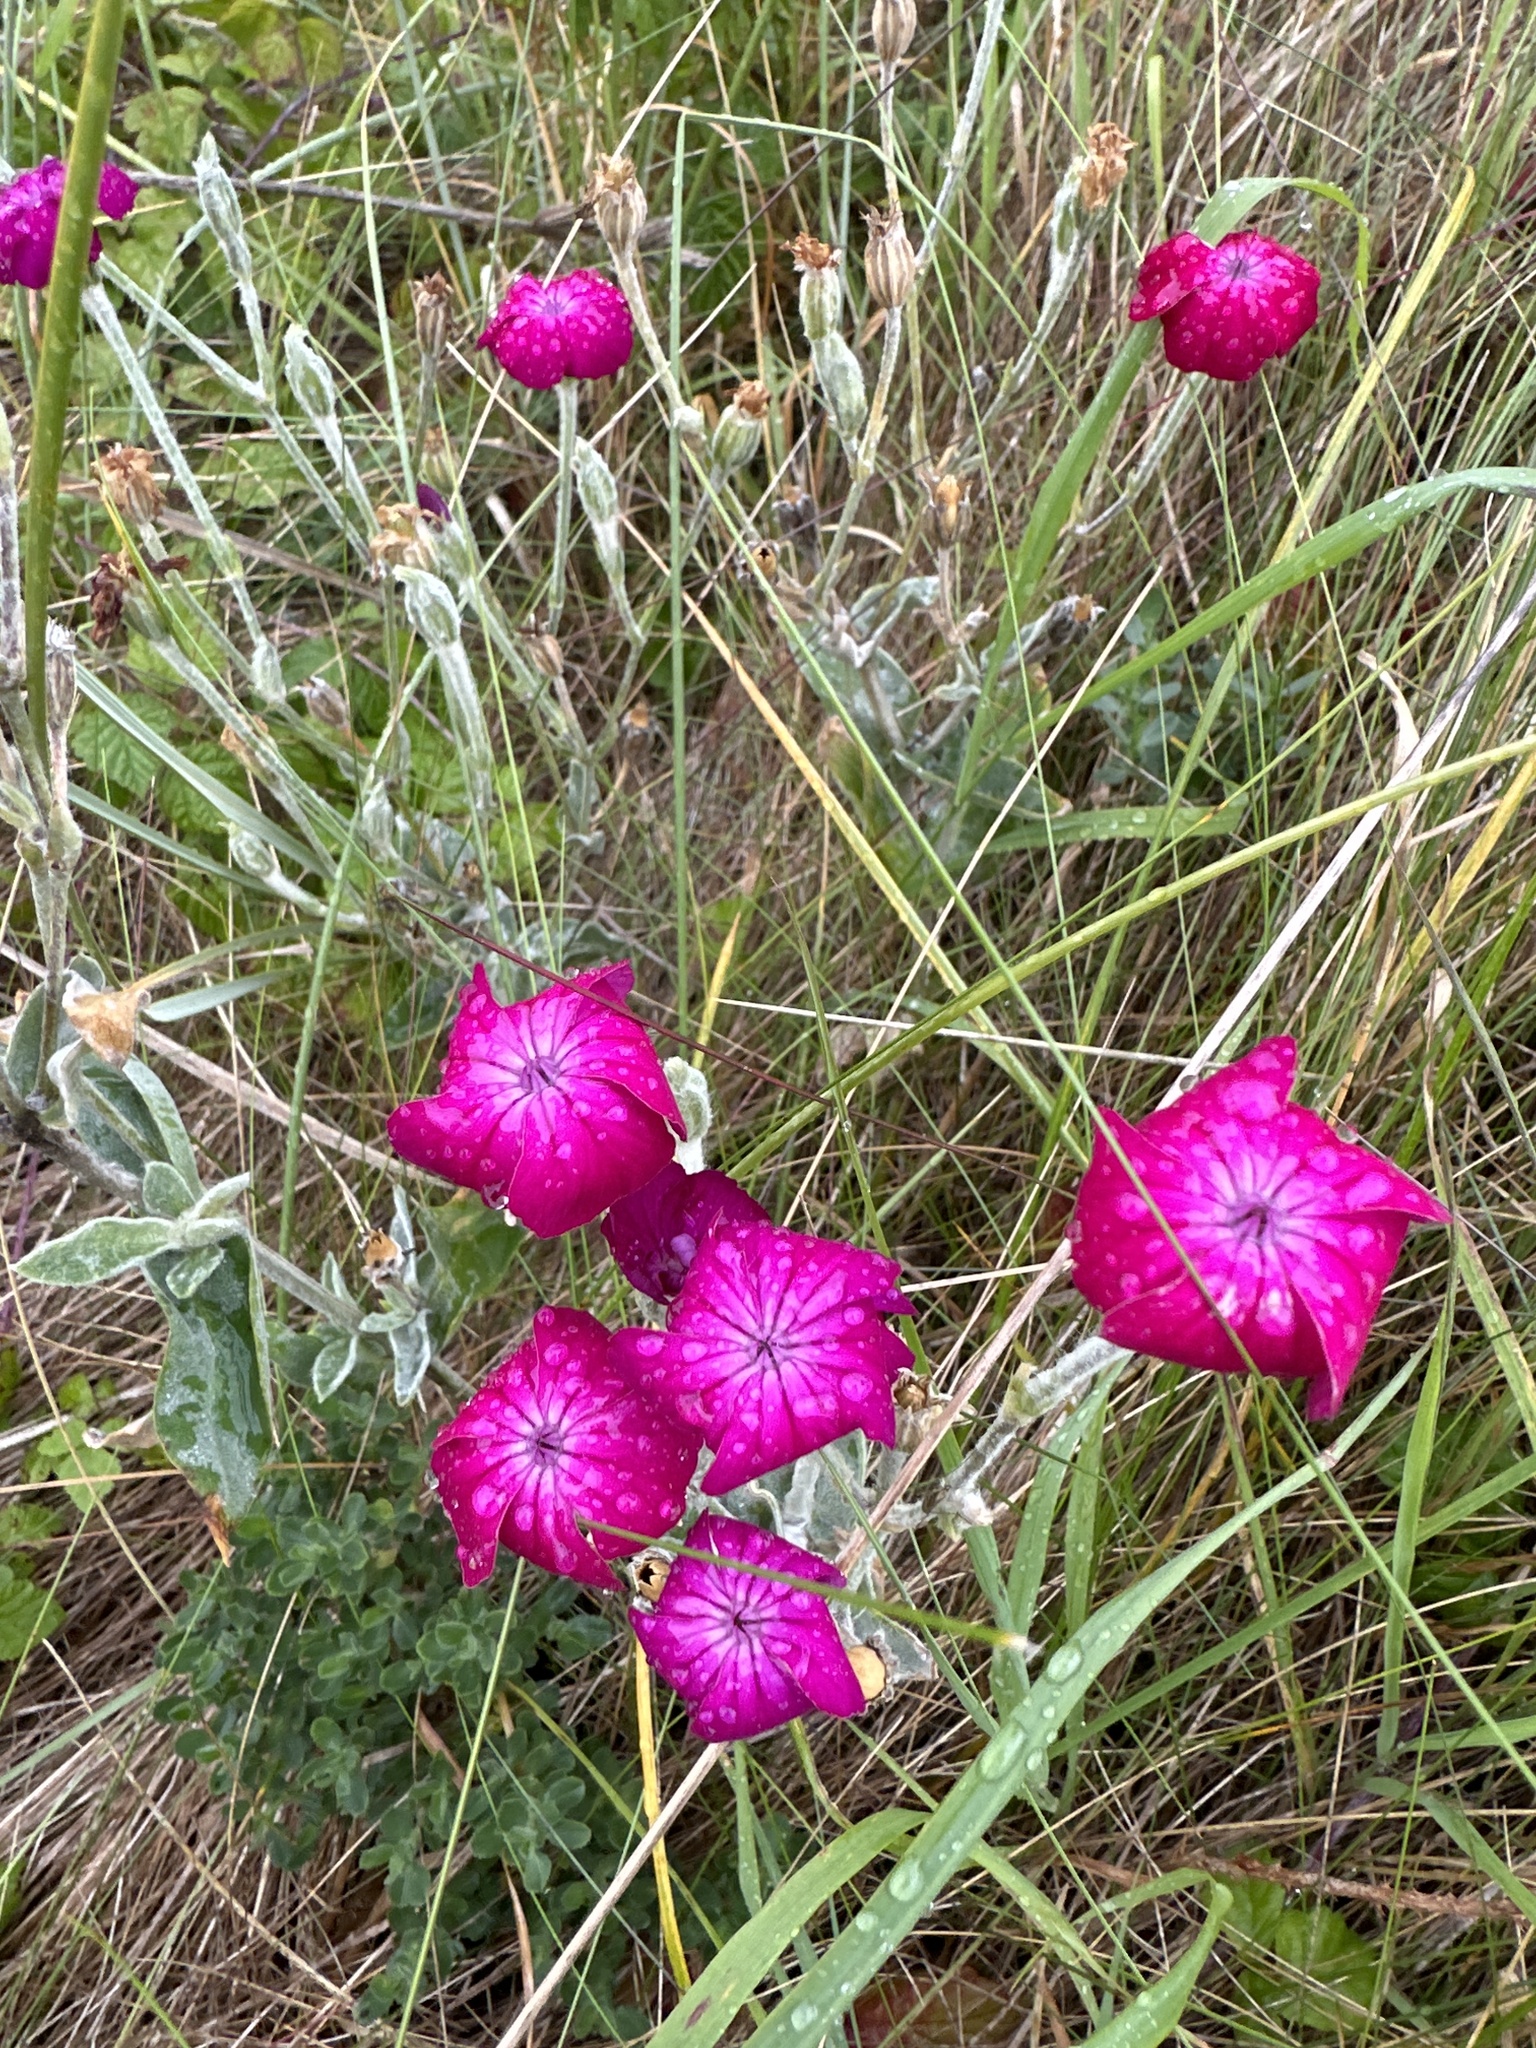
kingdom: Plantae
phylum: Tracheophyta
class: Magnoliopsida
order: Caryophyllales
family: Caryophyllaceae
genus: Silene
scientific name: Silene coronaria
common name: Rose campion
